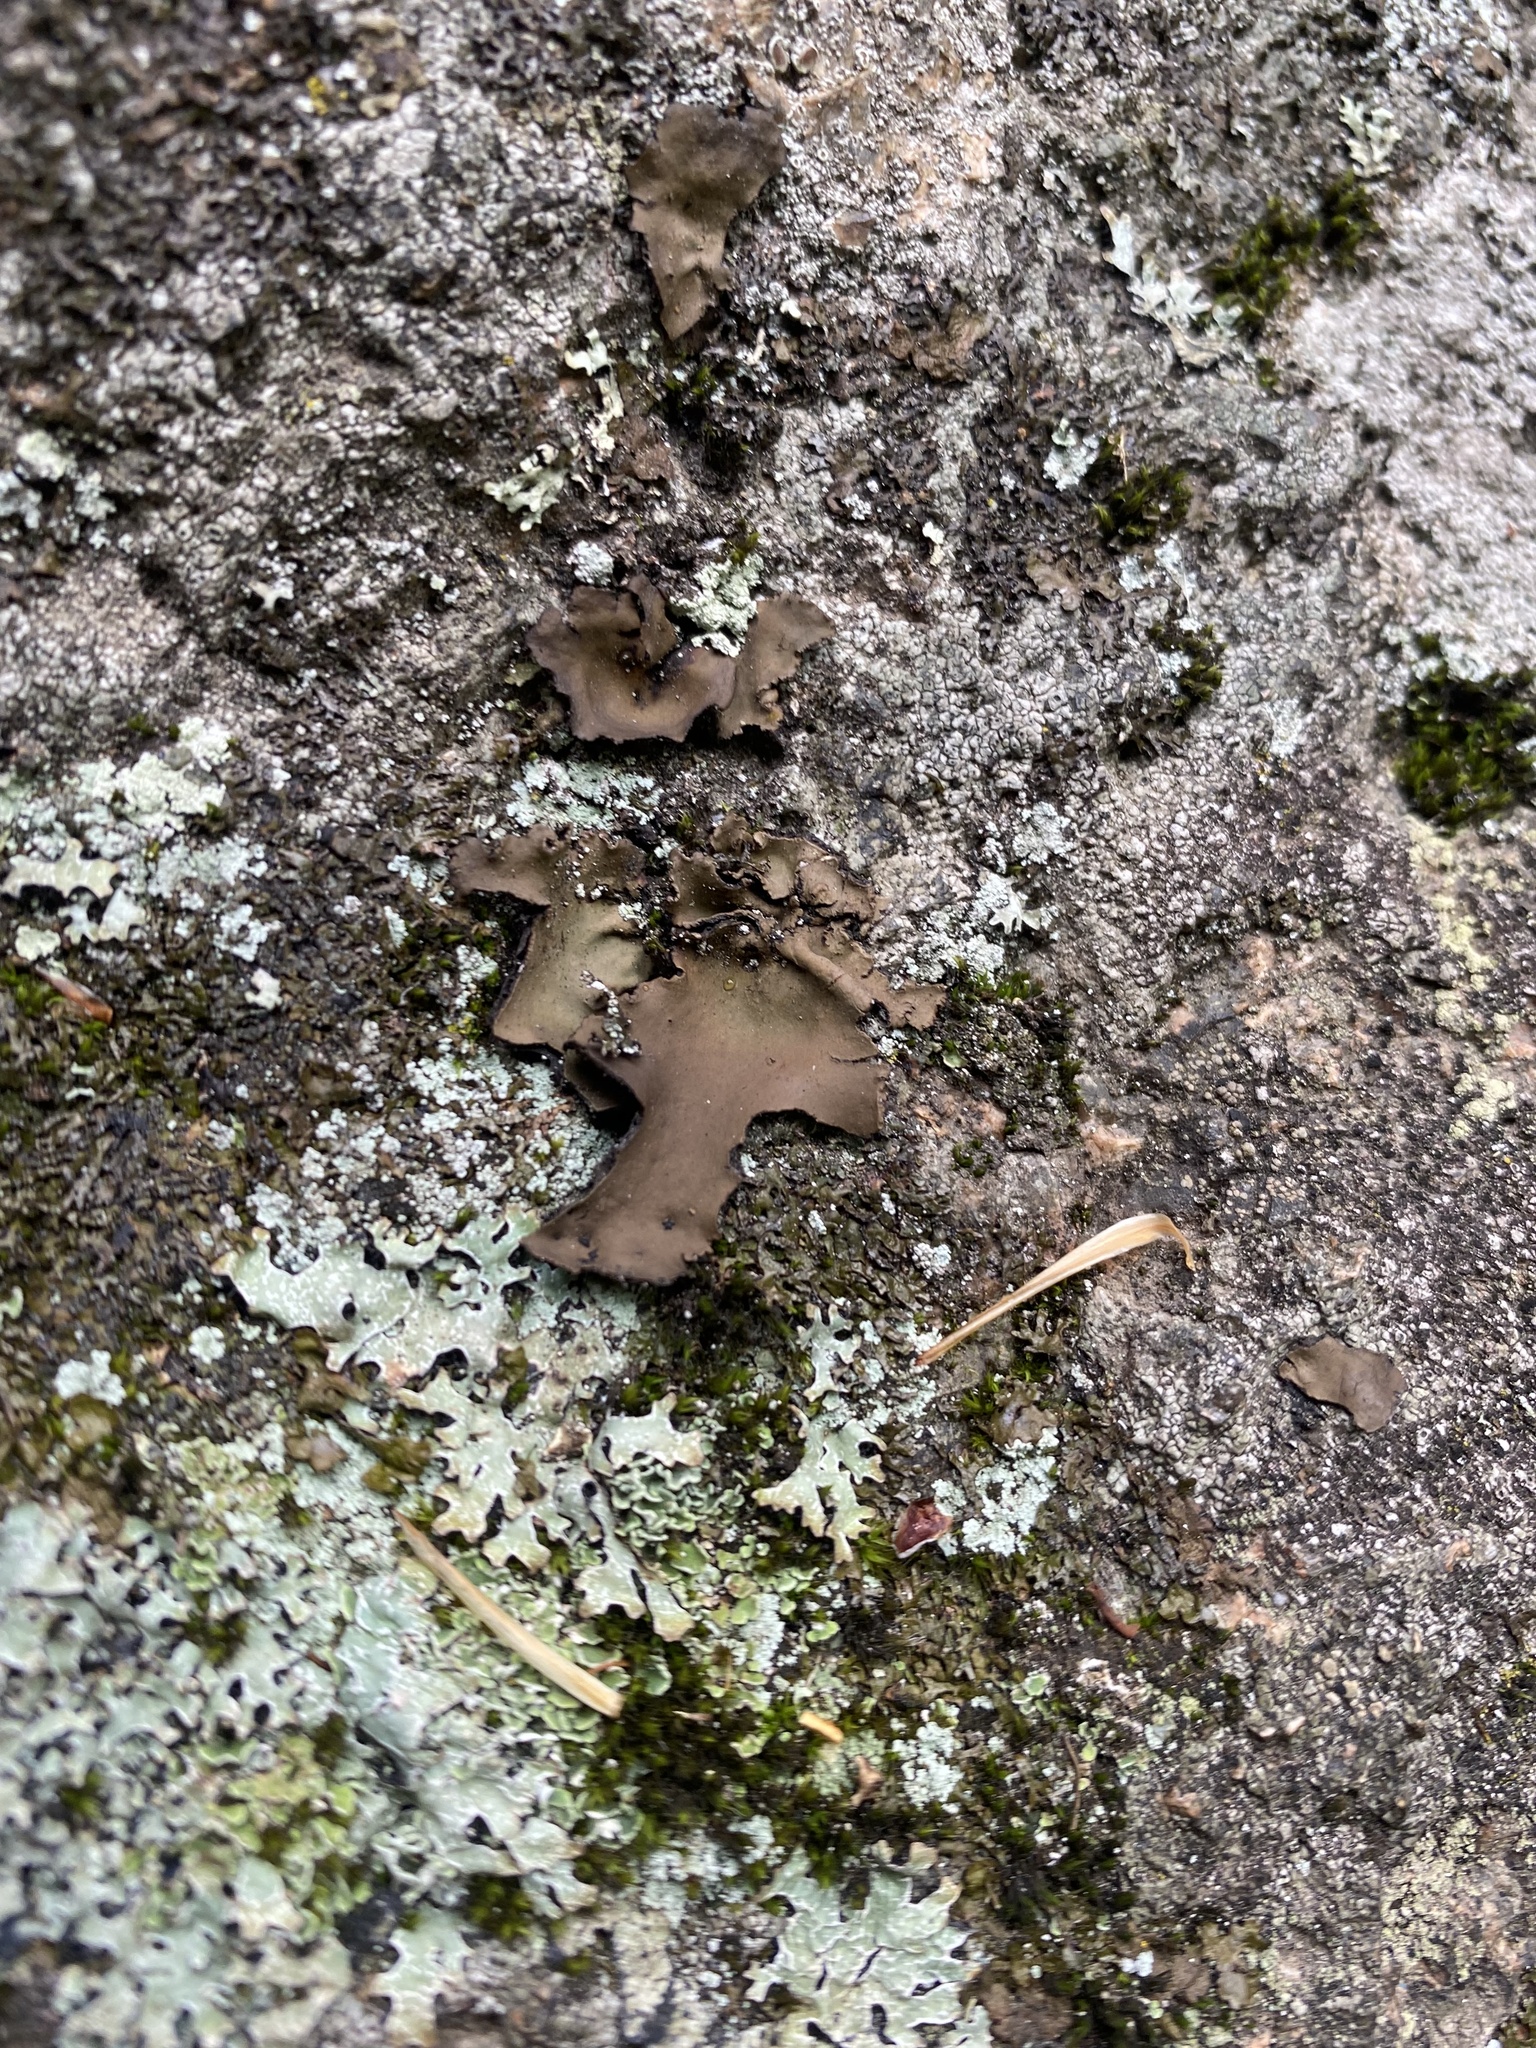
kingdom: Fungi
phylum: Ascomycota
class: Lecanoromycetes
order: Umbilicariales
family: Umbilicariaceae
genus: Umbilicaria
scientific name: Umbilicaria muhlenbergii
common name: Lesser rocktripe
